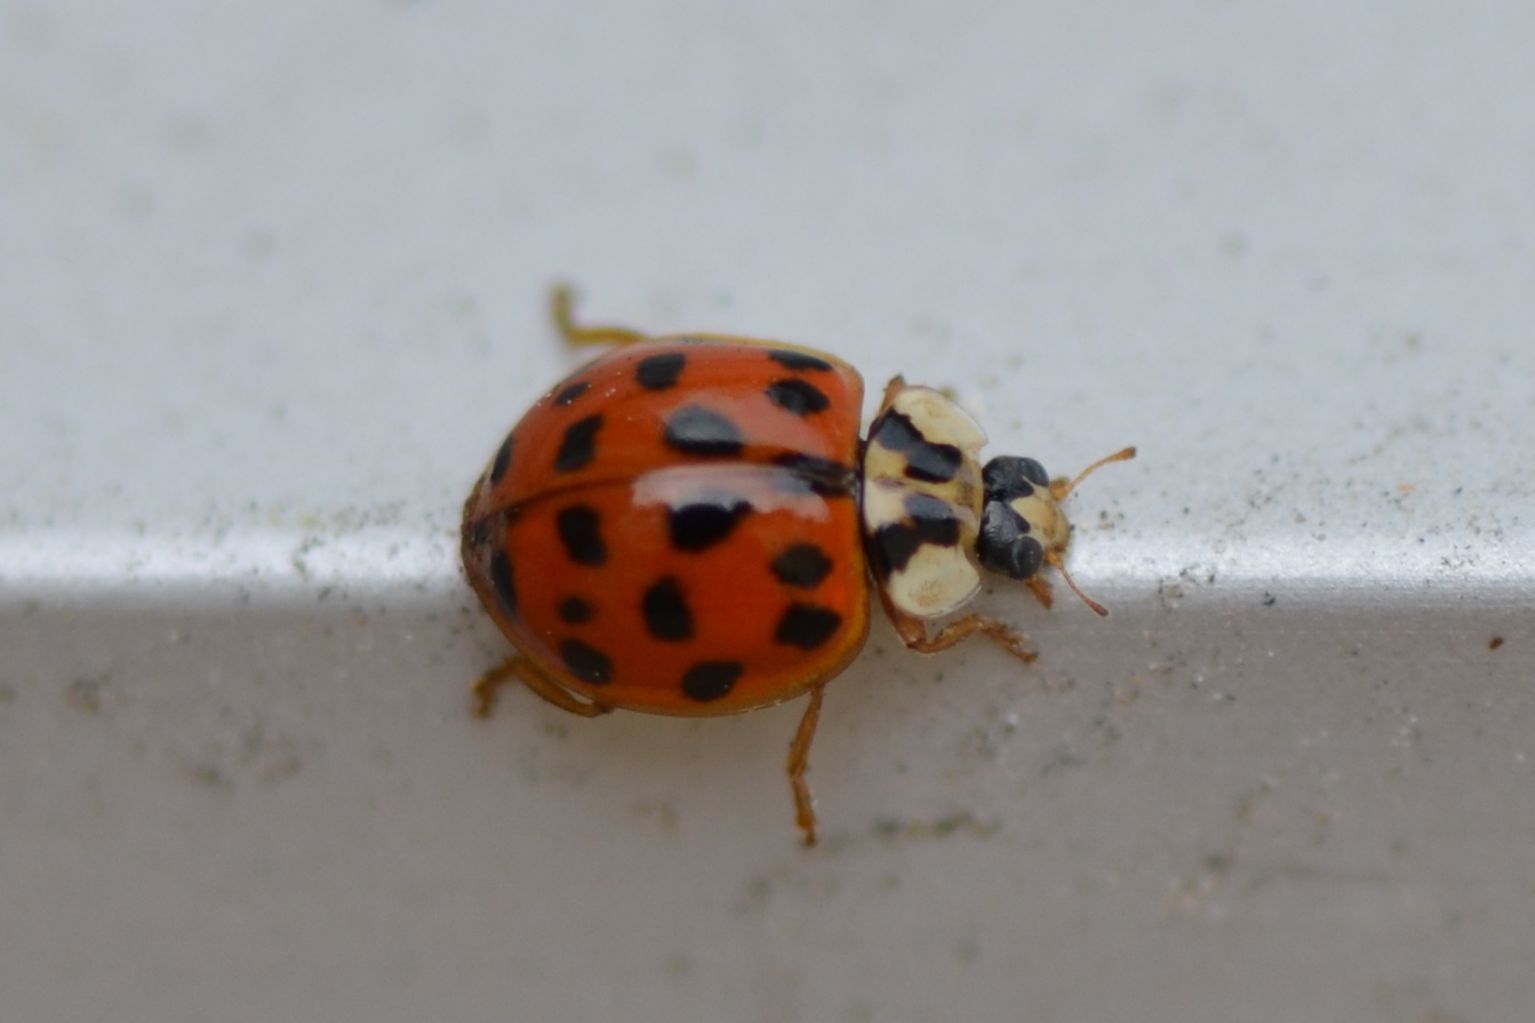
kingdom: Animalia
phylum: Arthropoda
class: Insecta
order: Coleoptera
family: Coccinellidae
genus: Harmonia
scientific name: Harmonia axyridis
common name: Harlequin ladybird
